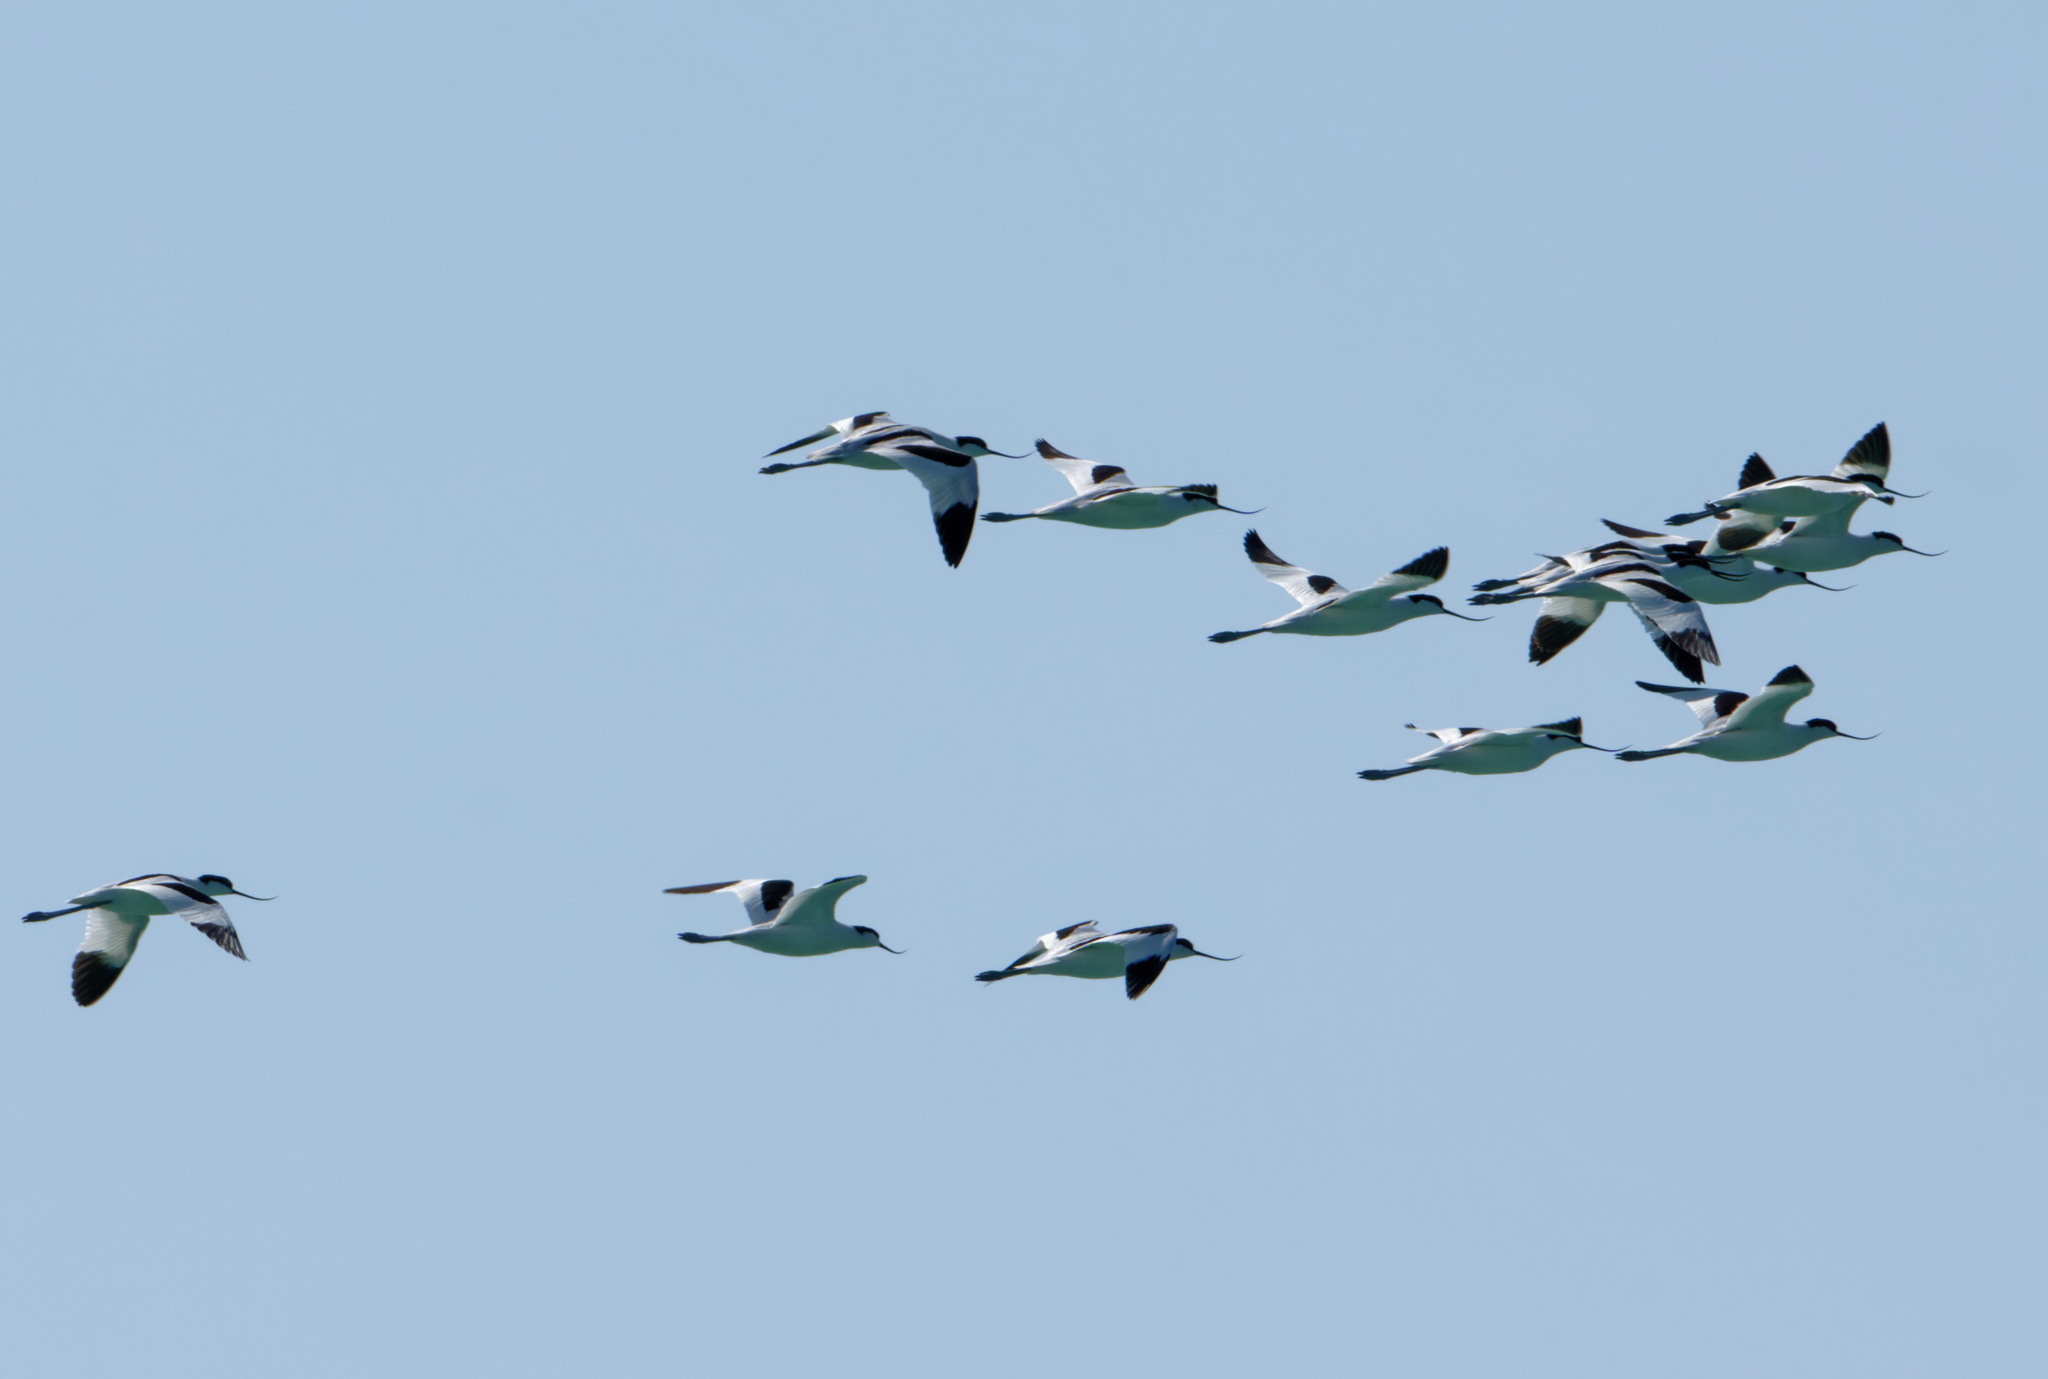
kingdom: Animalia
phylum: Chordata
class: Aves
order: Charadriiformes
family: Recurvirostridae
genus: Recurvirostra
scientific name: Recurvirostra avosetta
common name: Pied avocet
